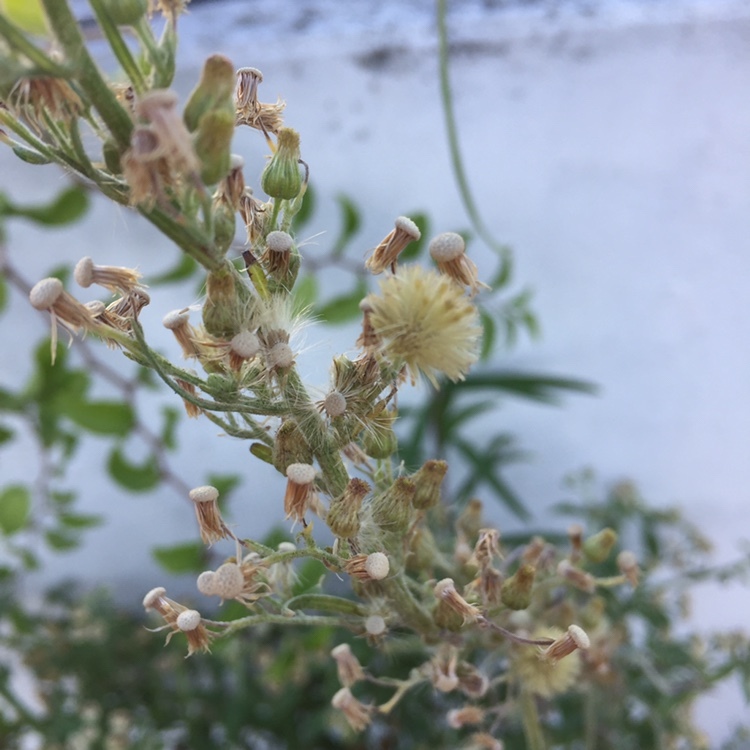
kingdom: Plantae
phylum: Tracheophyta
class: Magnoliopsida
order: Asterales
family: Asteraceae
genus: Erigeron
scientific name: Erigeron bonariensis
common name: Argentine fleabane
